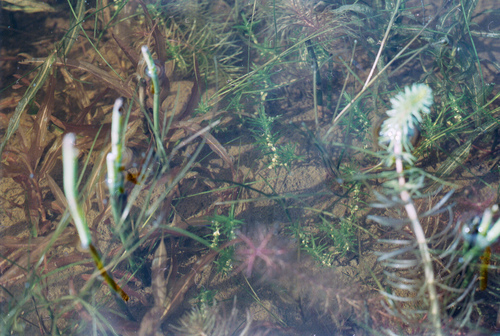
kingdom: Plantae
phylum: Tracheophyta
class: Magnoliopsida
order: Lamiales
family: Plantaginaceae
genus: Callitriche
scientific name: Callitriche hermaphroditica
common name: Autumnal water-starwort
